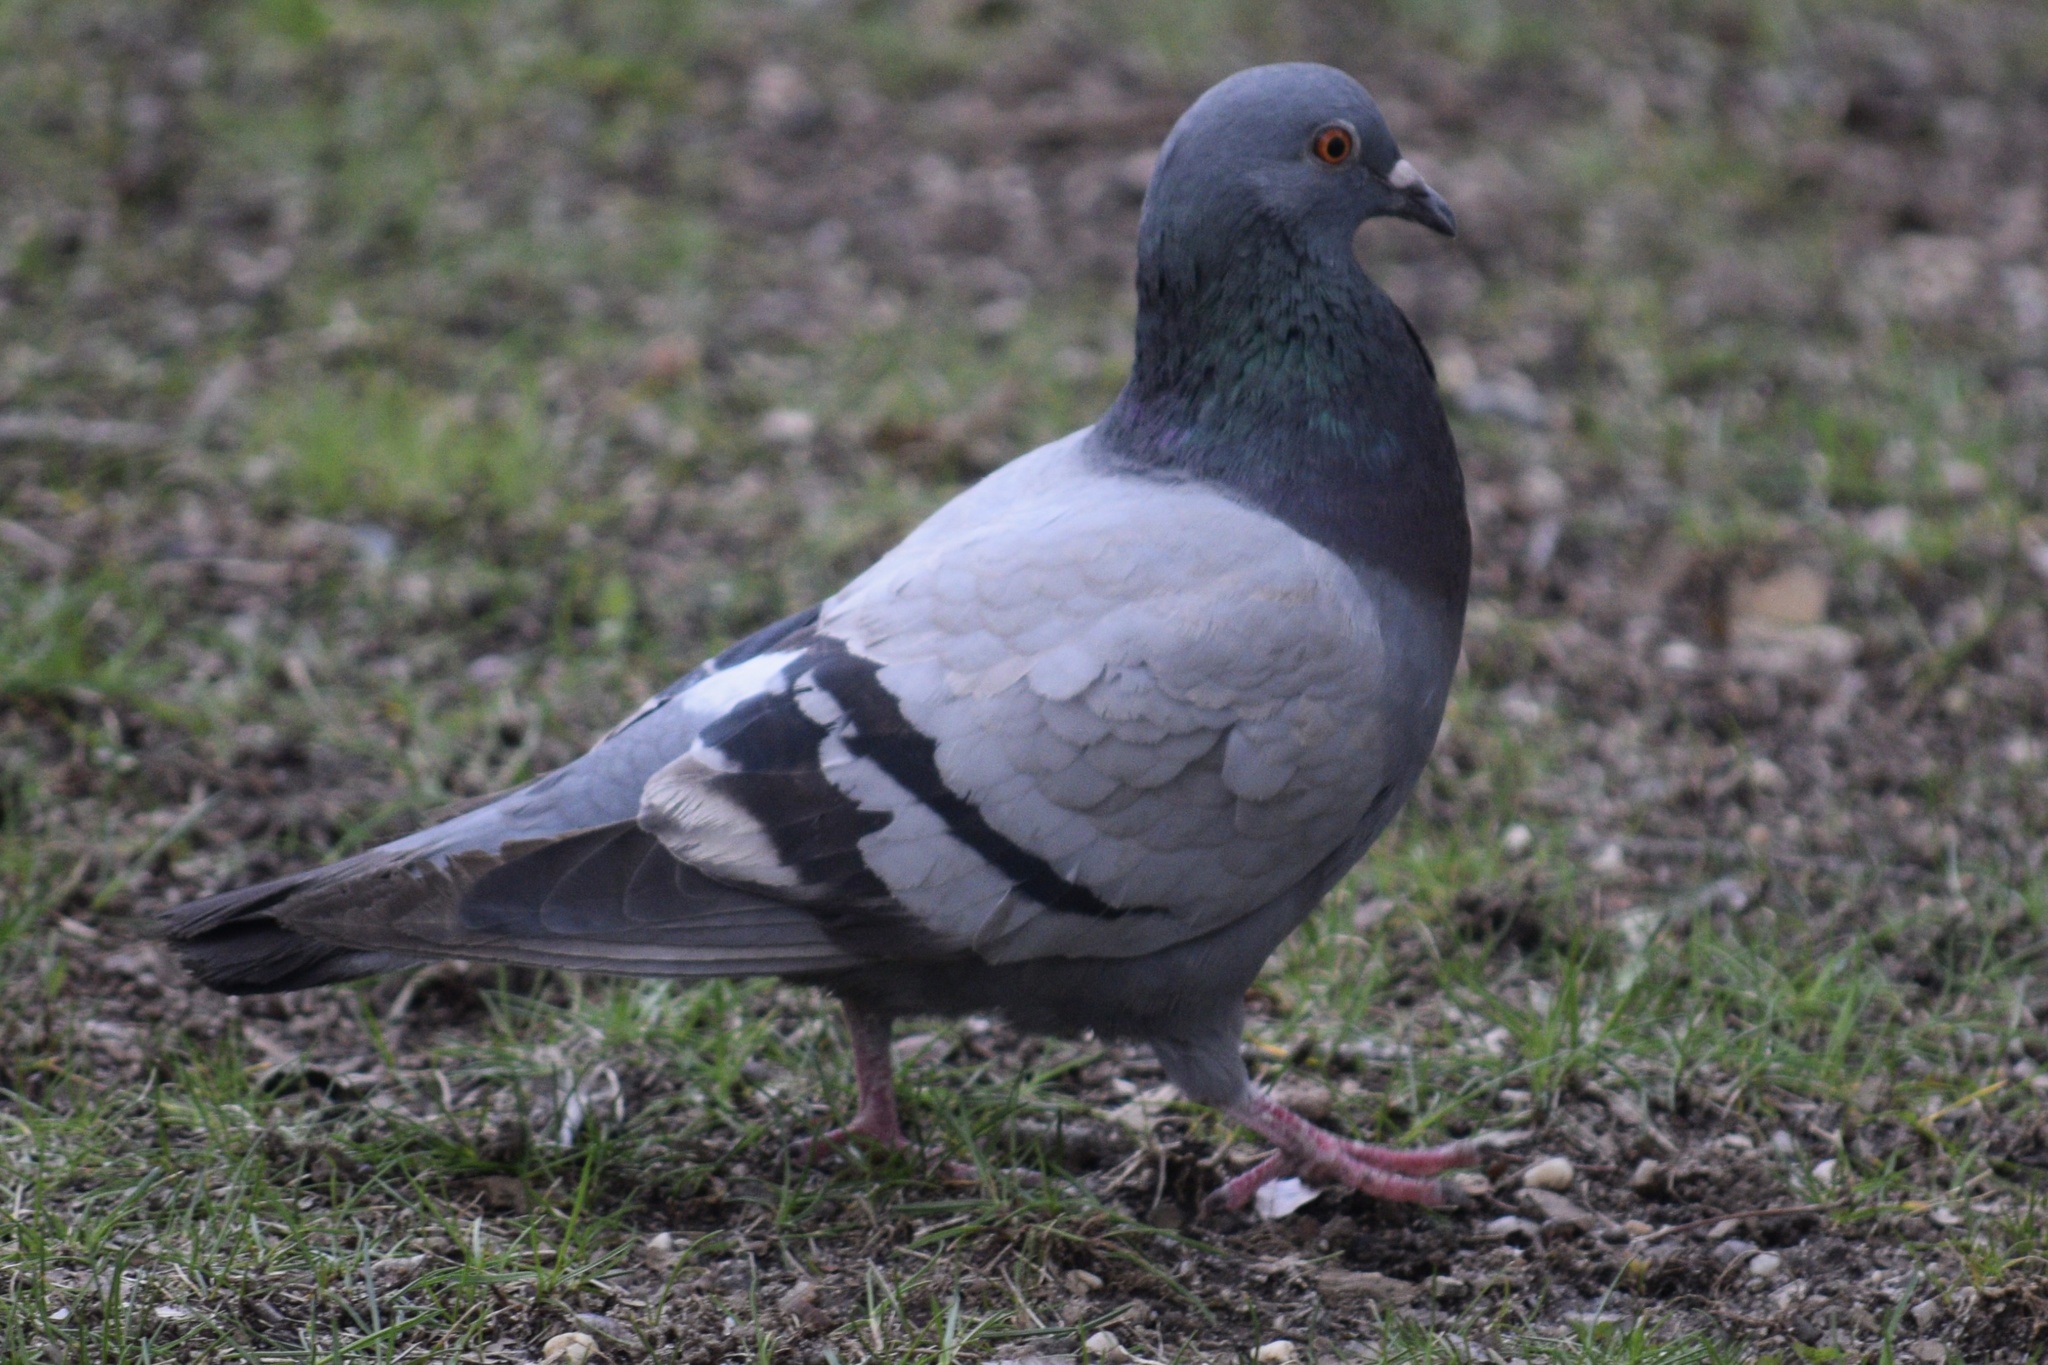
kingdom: Animalia
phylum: Chordata
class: Aves
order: Columbiformes
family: Columbidae
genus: Columba
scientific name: Columba livia
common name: Rock pigeon
